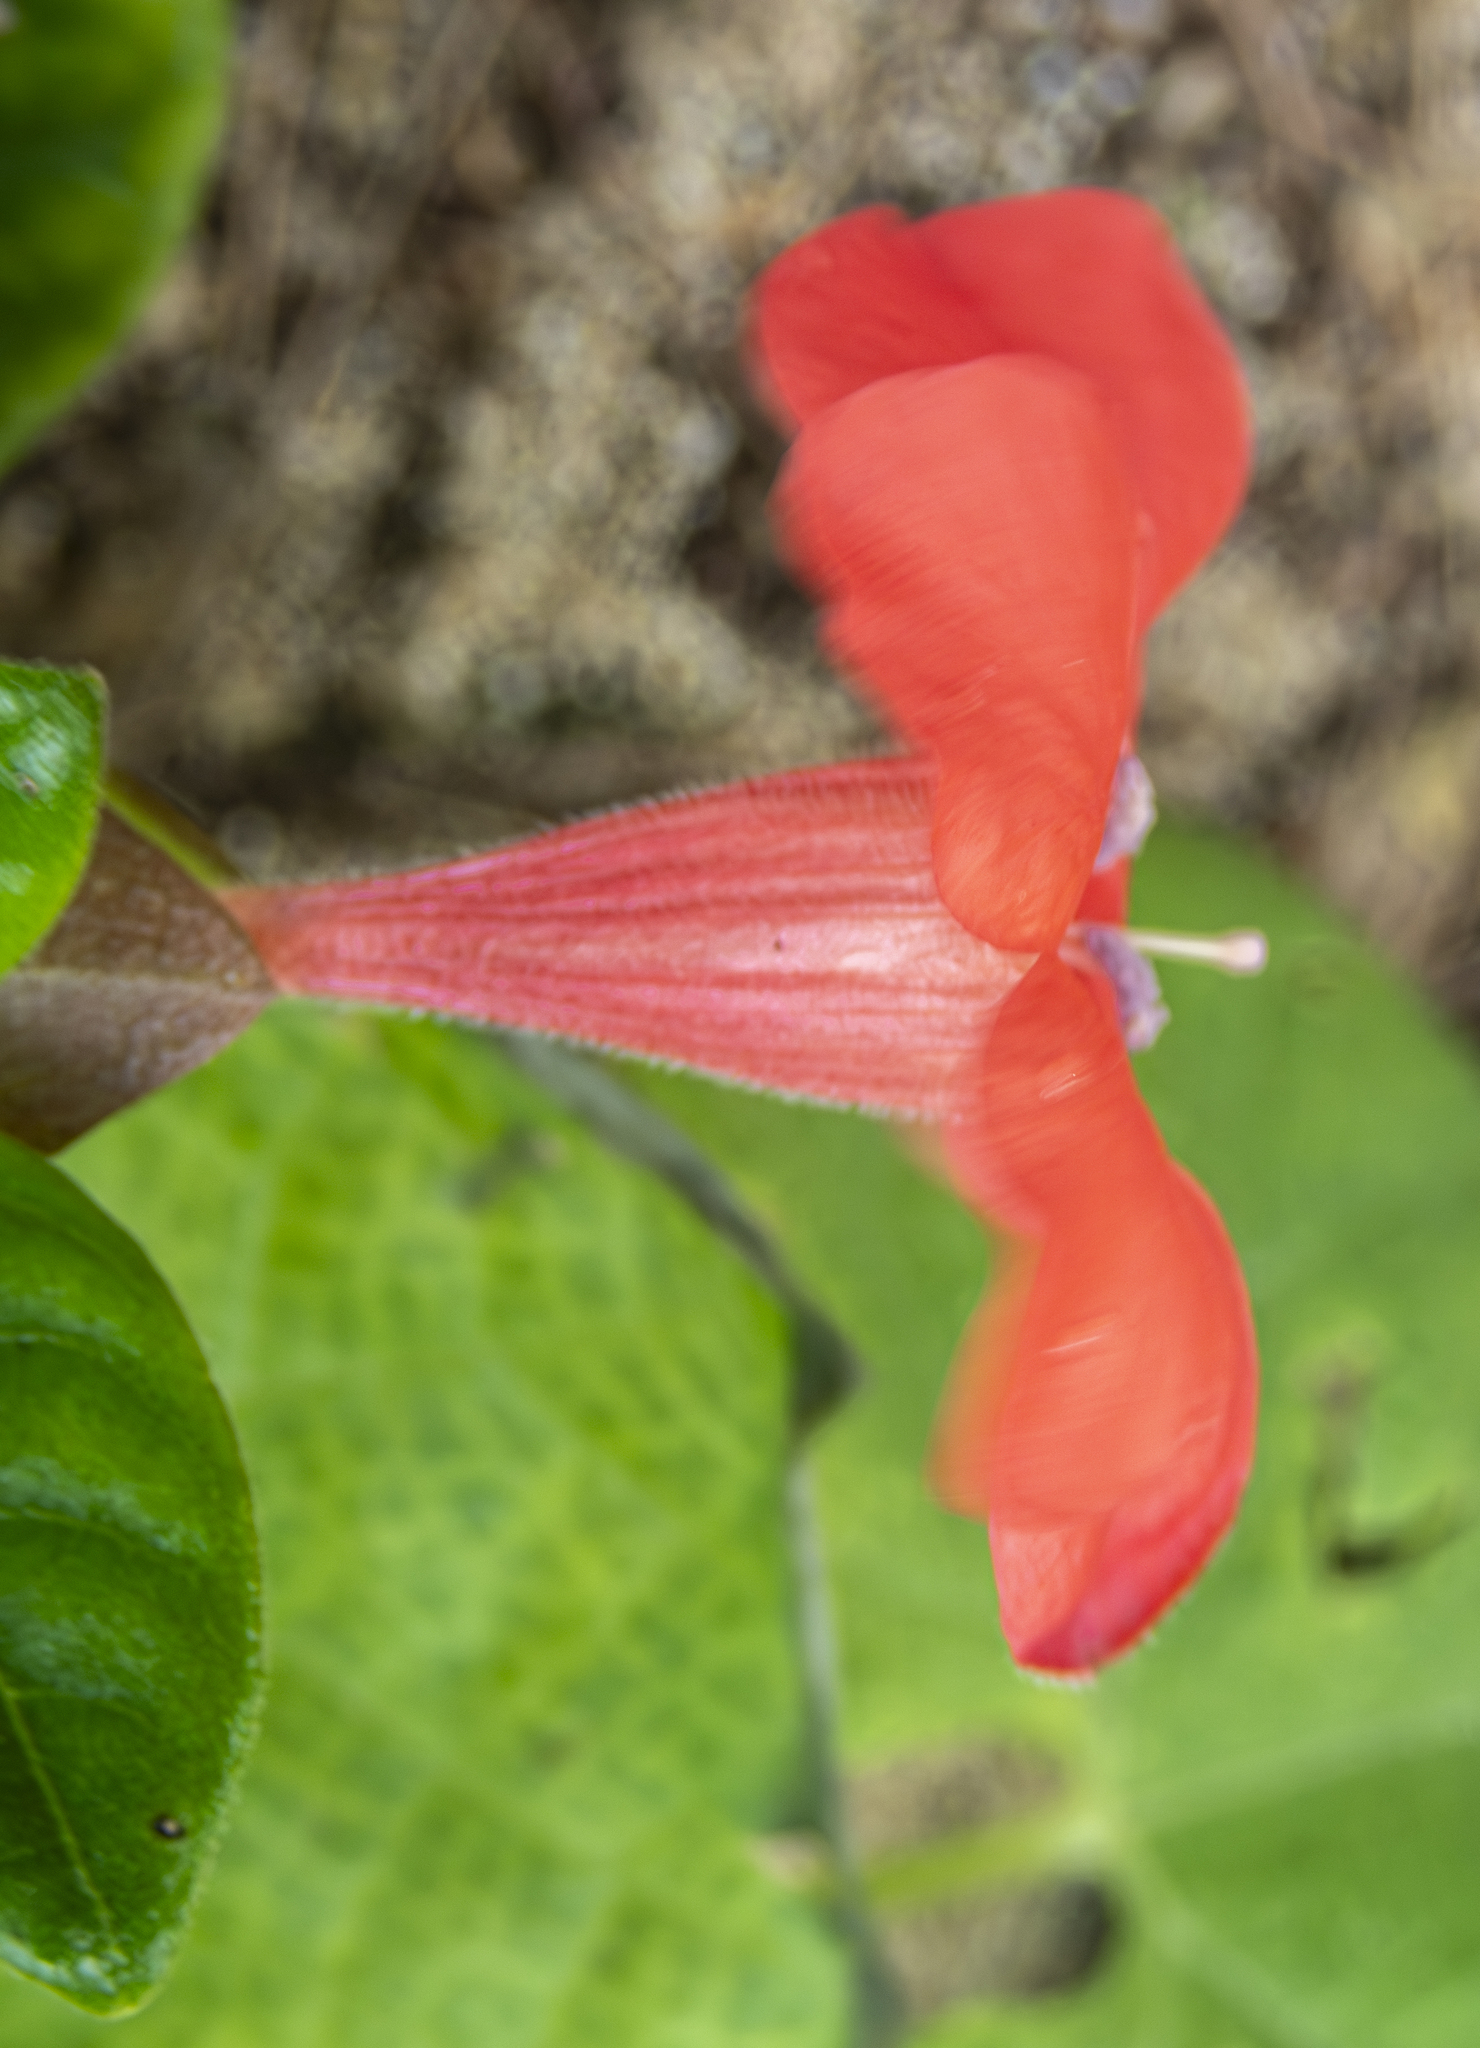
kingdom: Plantae
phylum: Tracheophyta
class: Magnoliopsida
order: Lamiales
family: Acanthaceae
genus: Barleria
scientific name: Barleria repens
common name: Pink-ruellia
